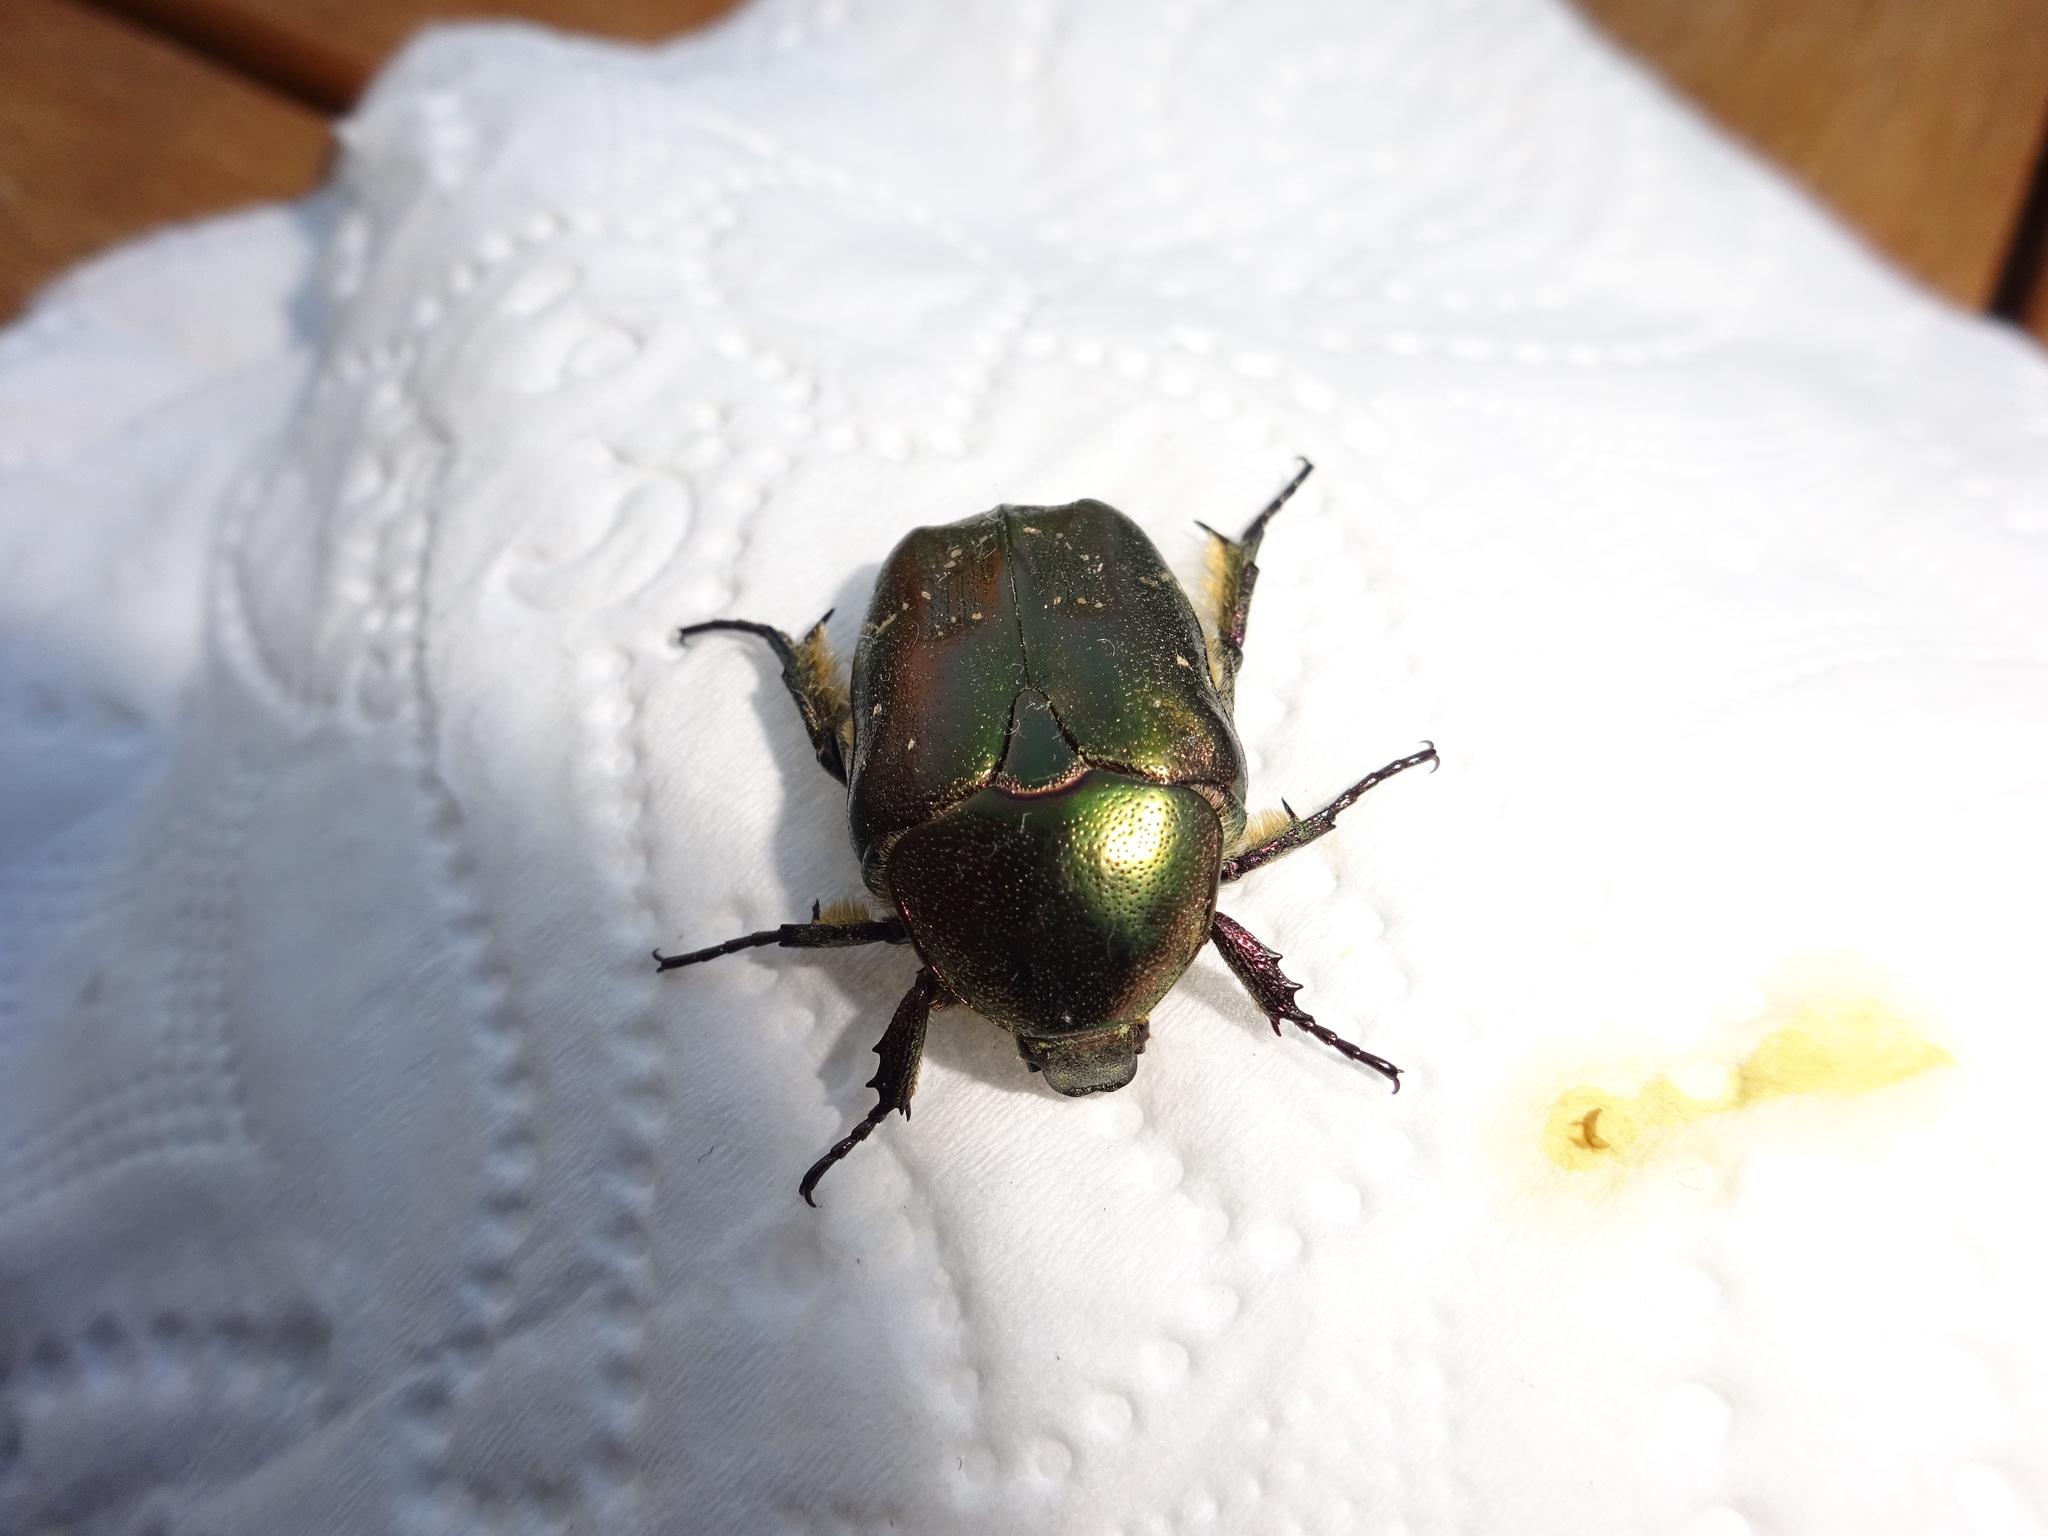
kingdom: Animalia
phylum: Arthropoda
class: Insecta
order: Coleoptera
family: Scarabaeidae
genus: Cetonia
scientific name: Cetonia aurata
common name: Rose chafer
